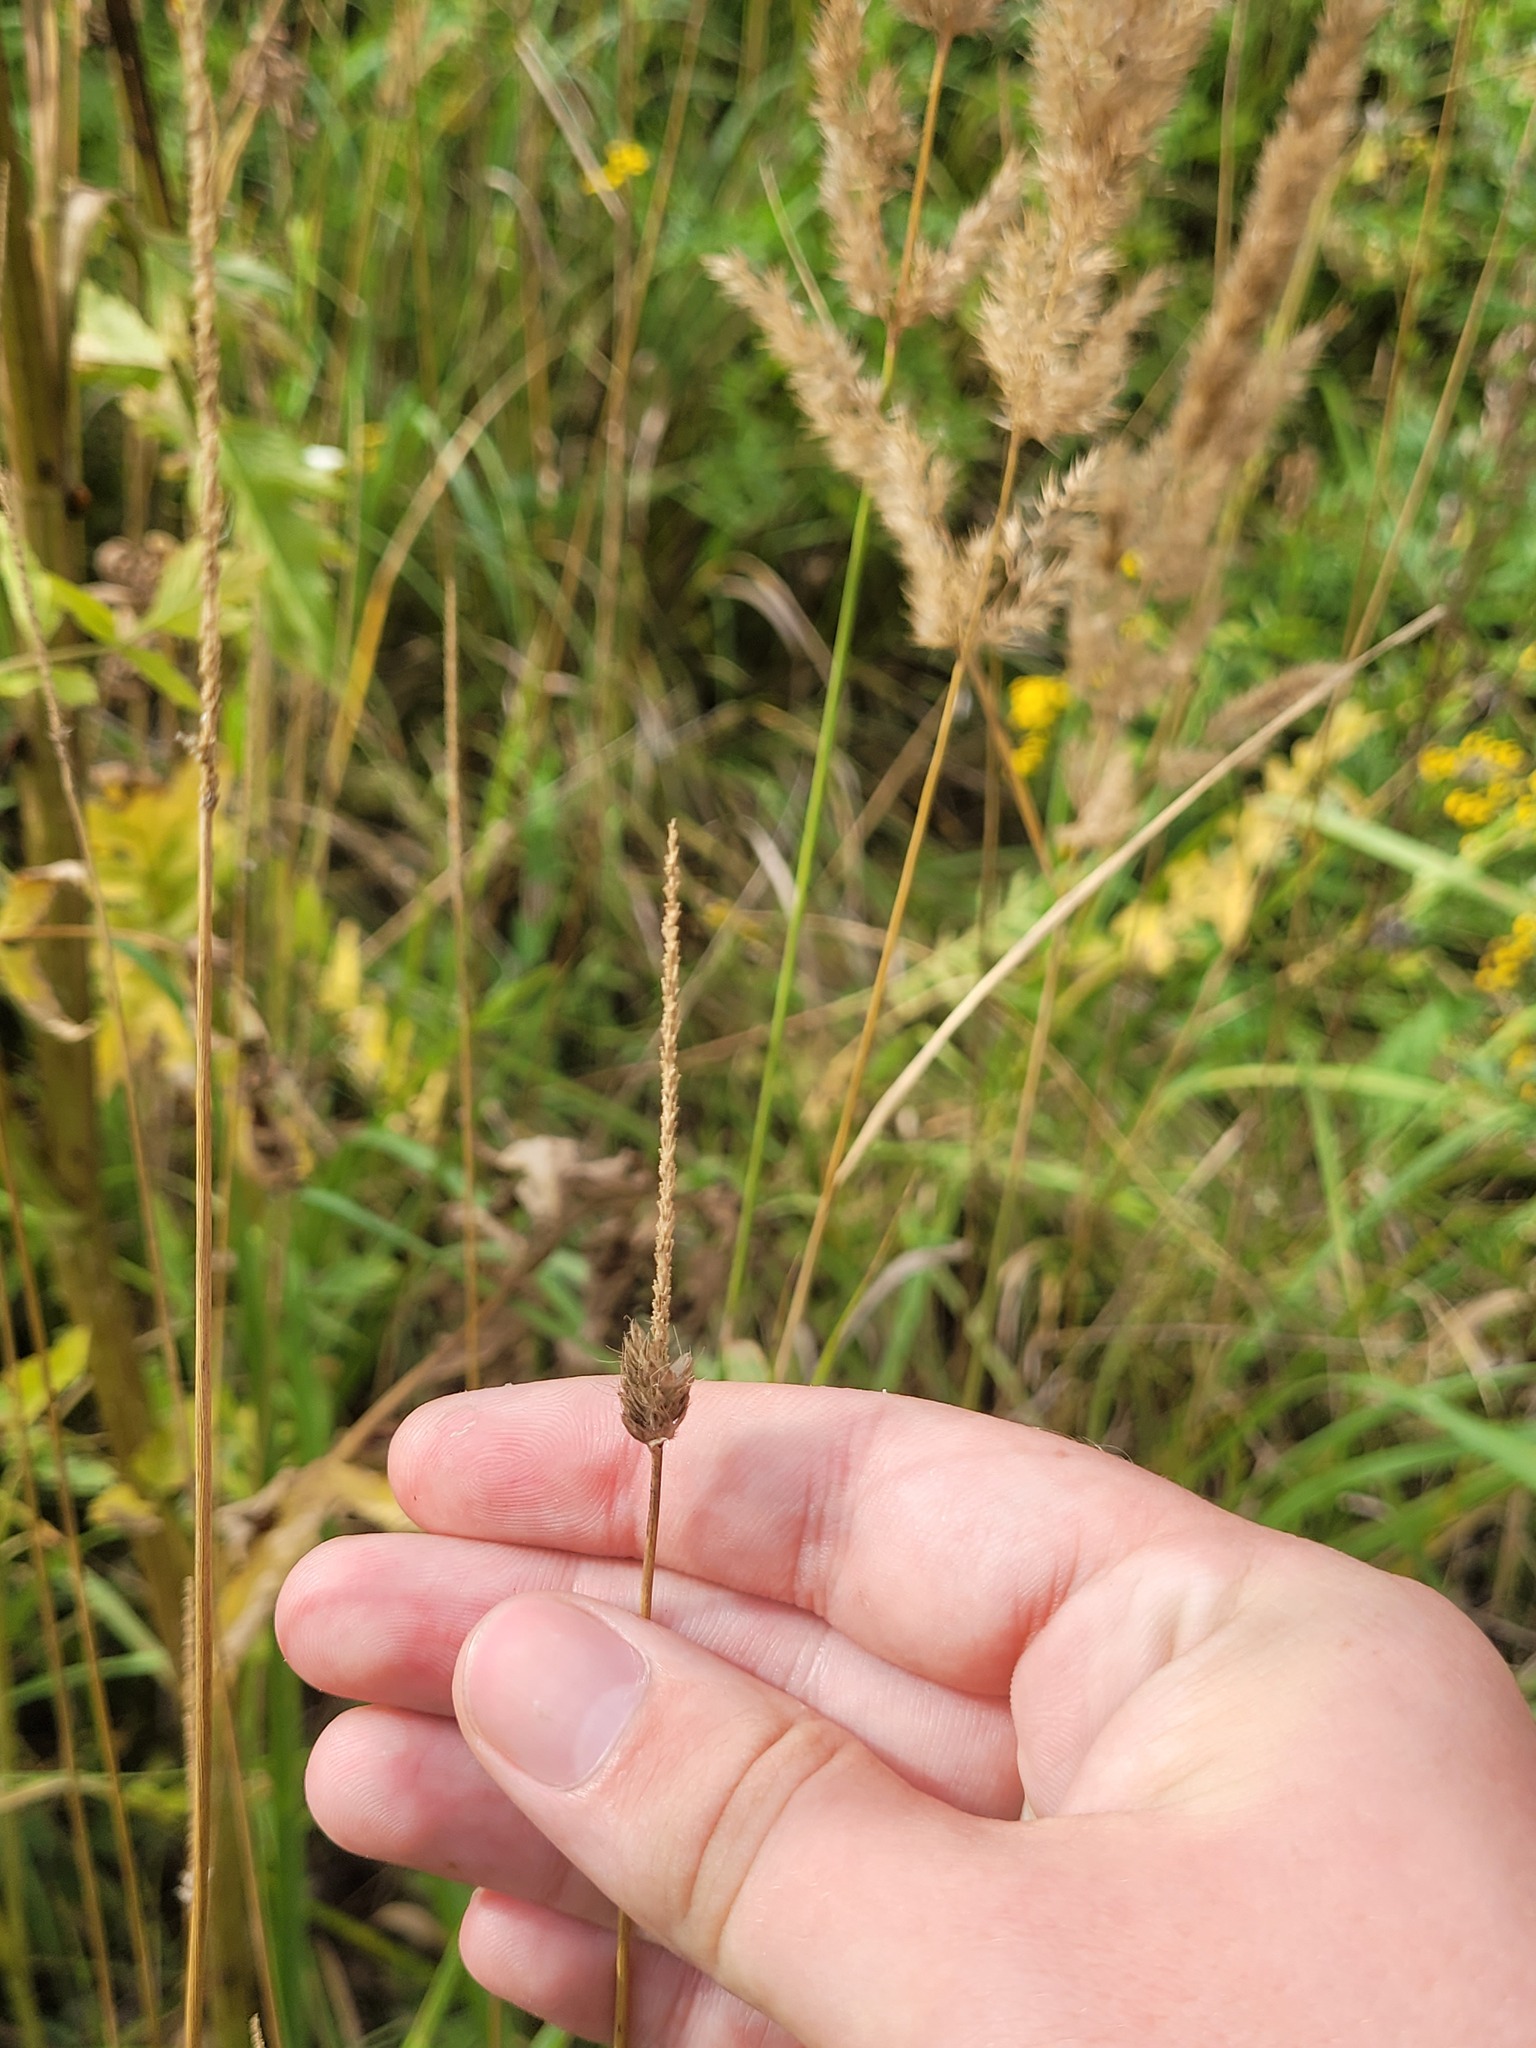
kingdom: Plantae
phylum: Tracheophyta
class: Liliopsida
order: Poales
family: Poaceae
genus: Alopecurus
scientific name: Alopecurus pratensis
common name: Meadow foxtail
